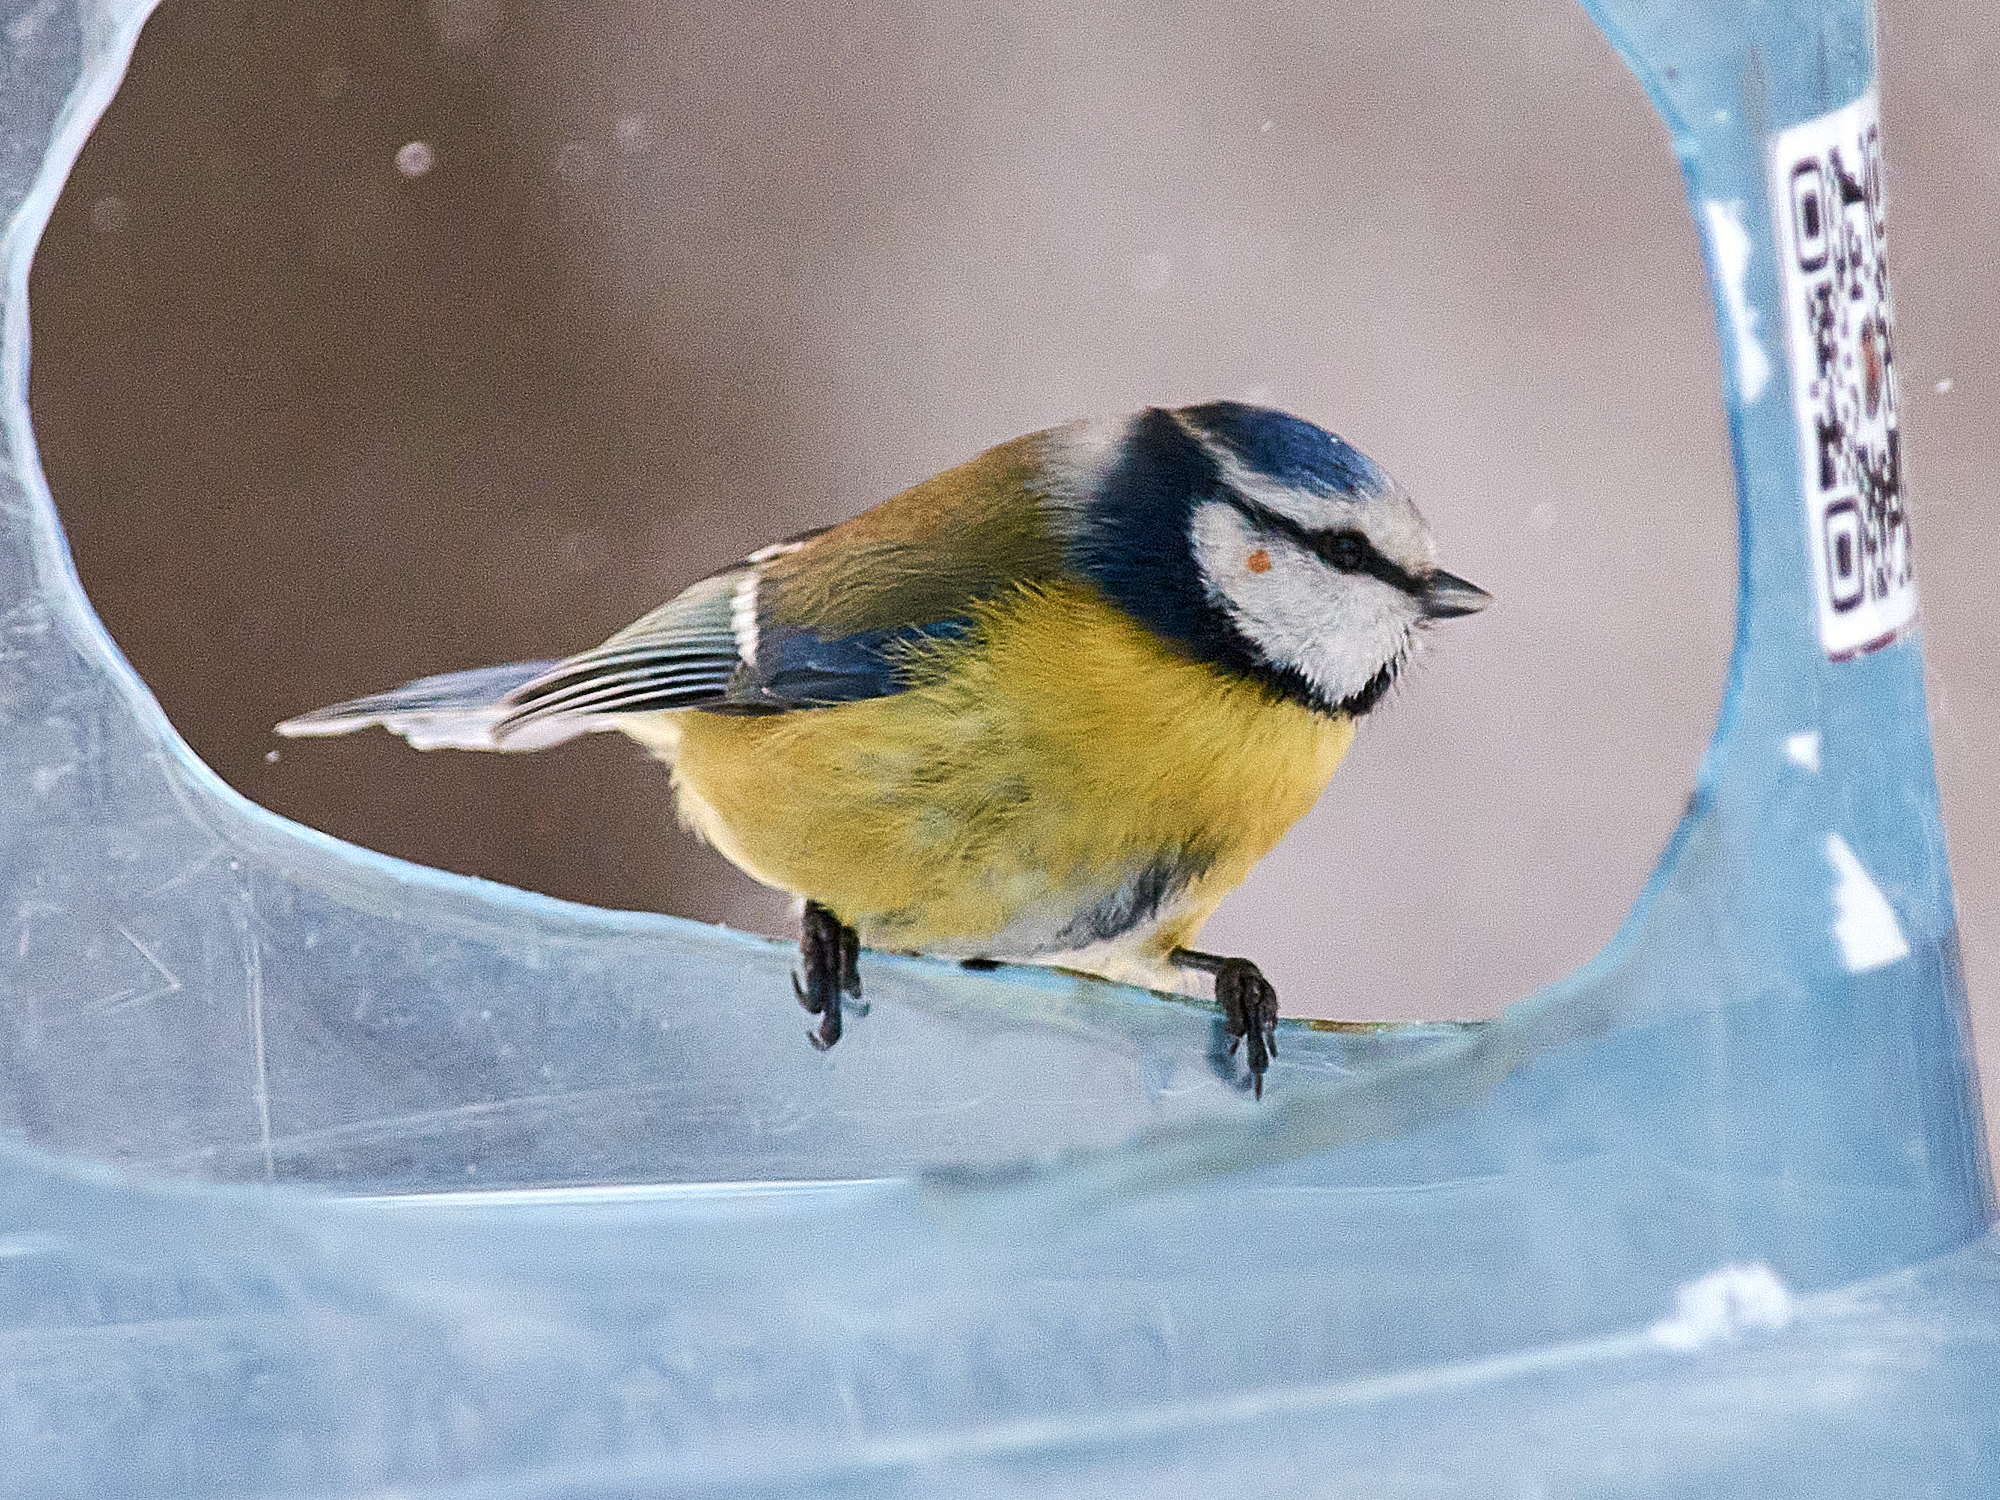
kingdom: Animalia
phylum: Chordata
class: Aves
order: Passeriformes
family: Paridae
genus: Cyanistes
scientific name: Cyanistes caeruleus
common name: Eurasian blue tit
